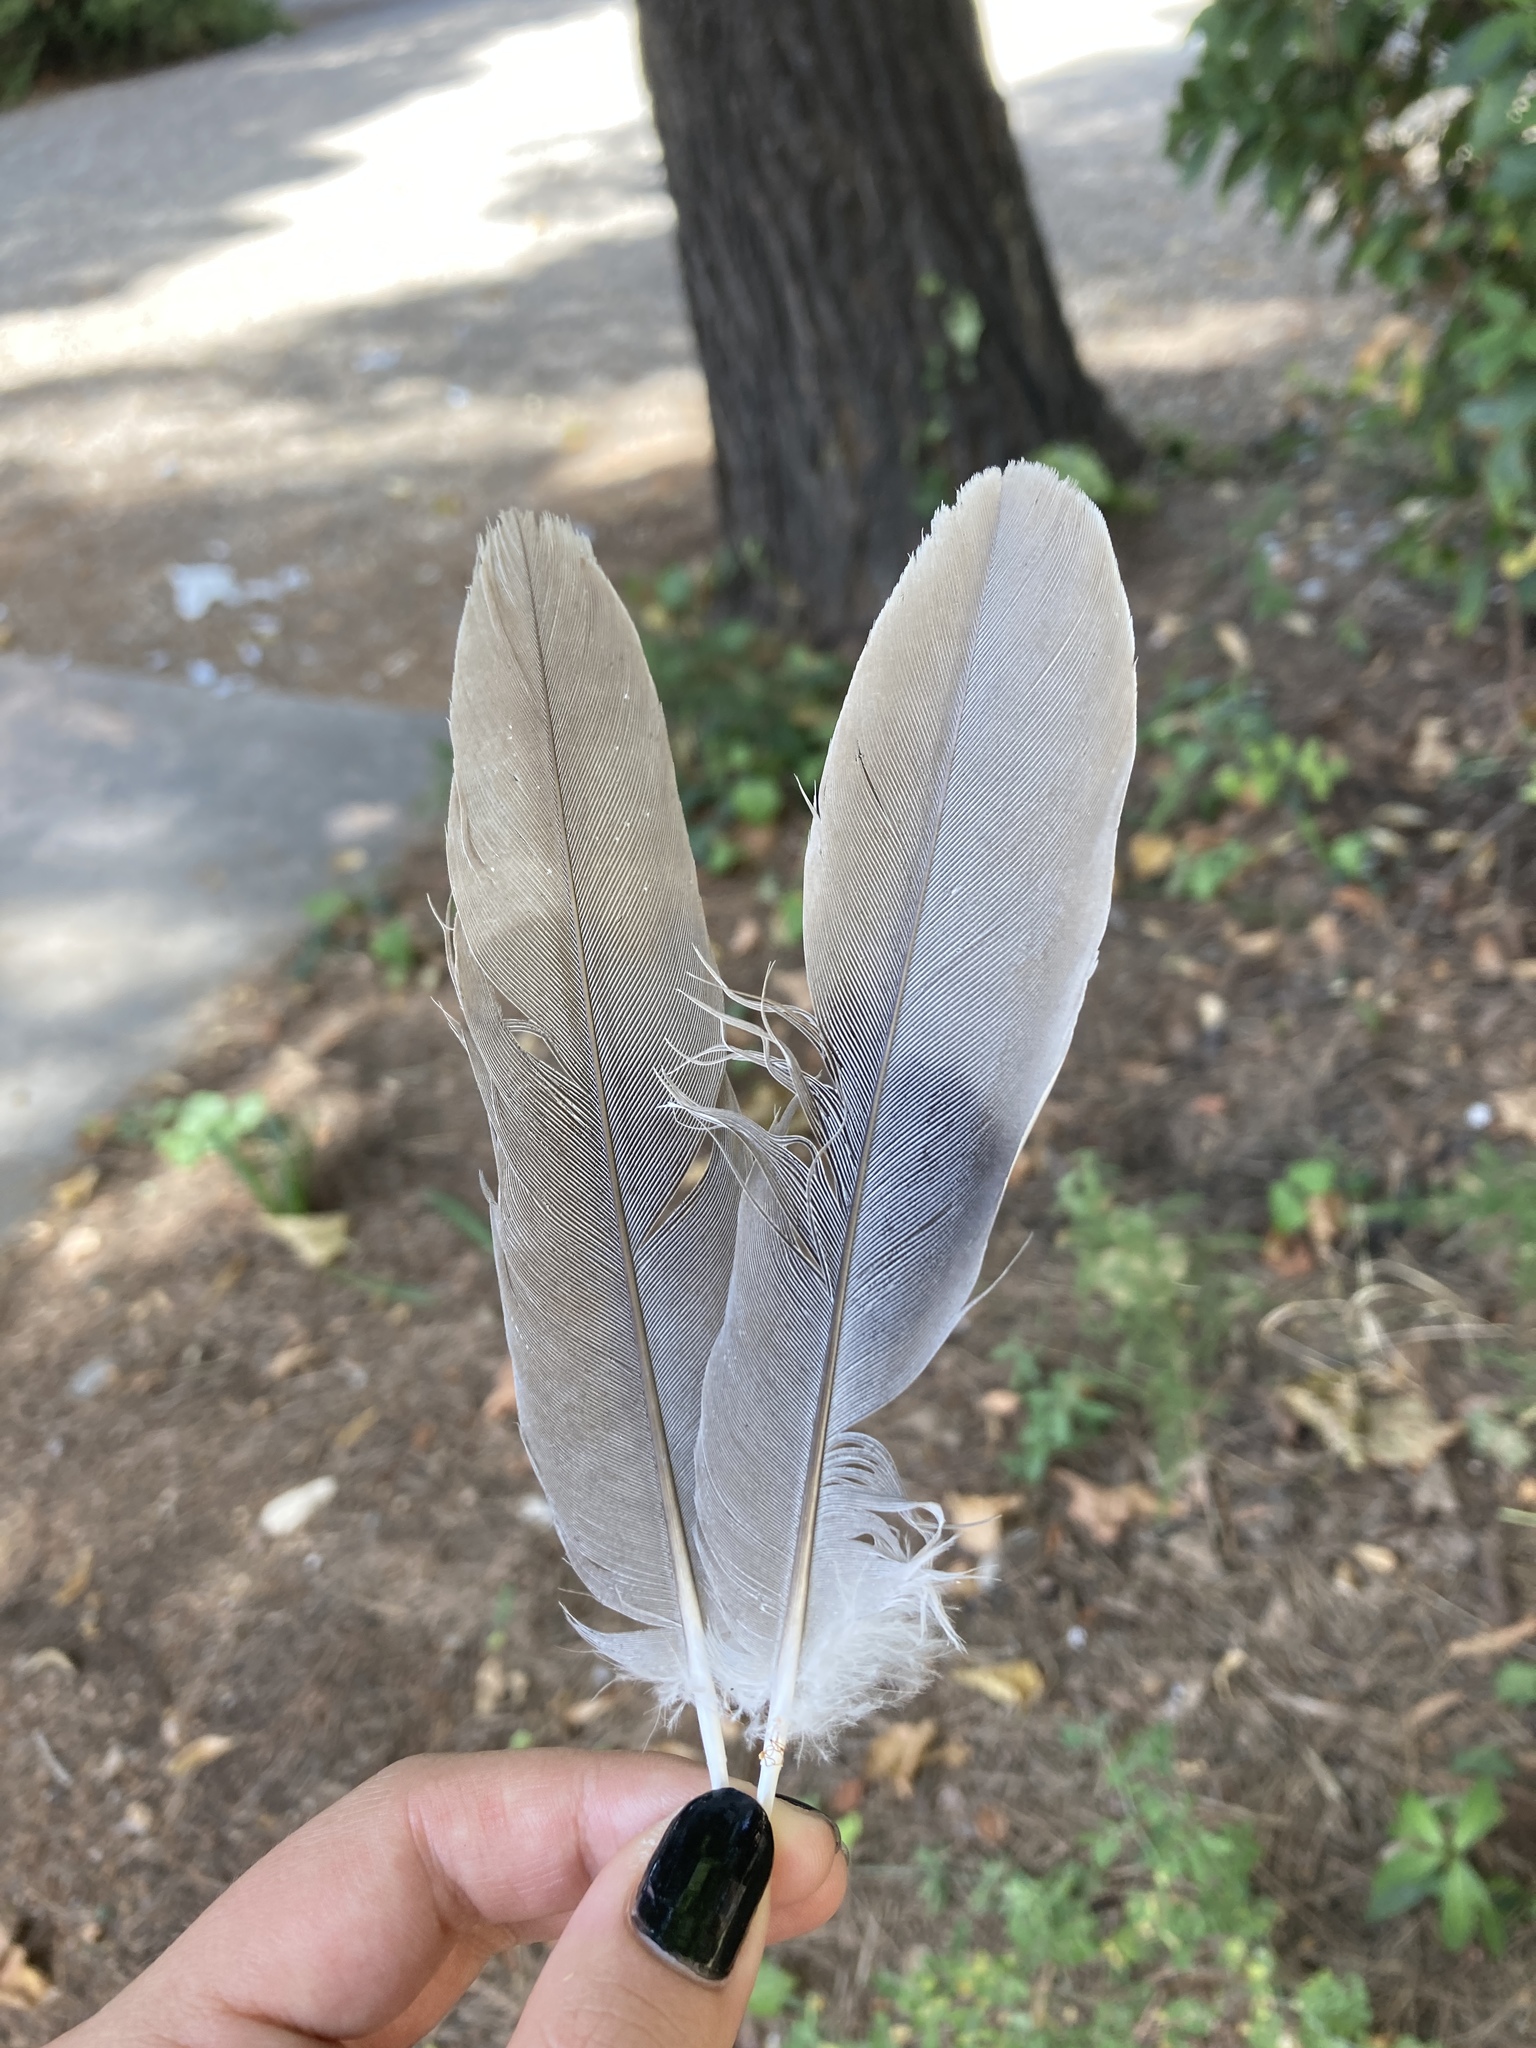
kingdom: Animalia
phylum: Chordata
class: Aves
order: Columbiformes
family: Columbidae
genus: Streptopelia
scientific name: Streptopelia decaocto
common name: Eurasian collared dove
